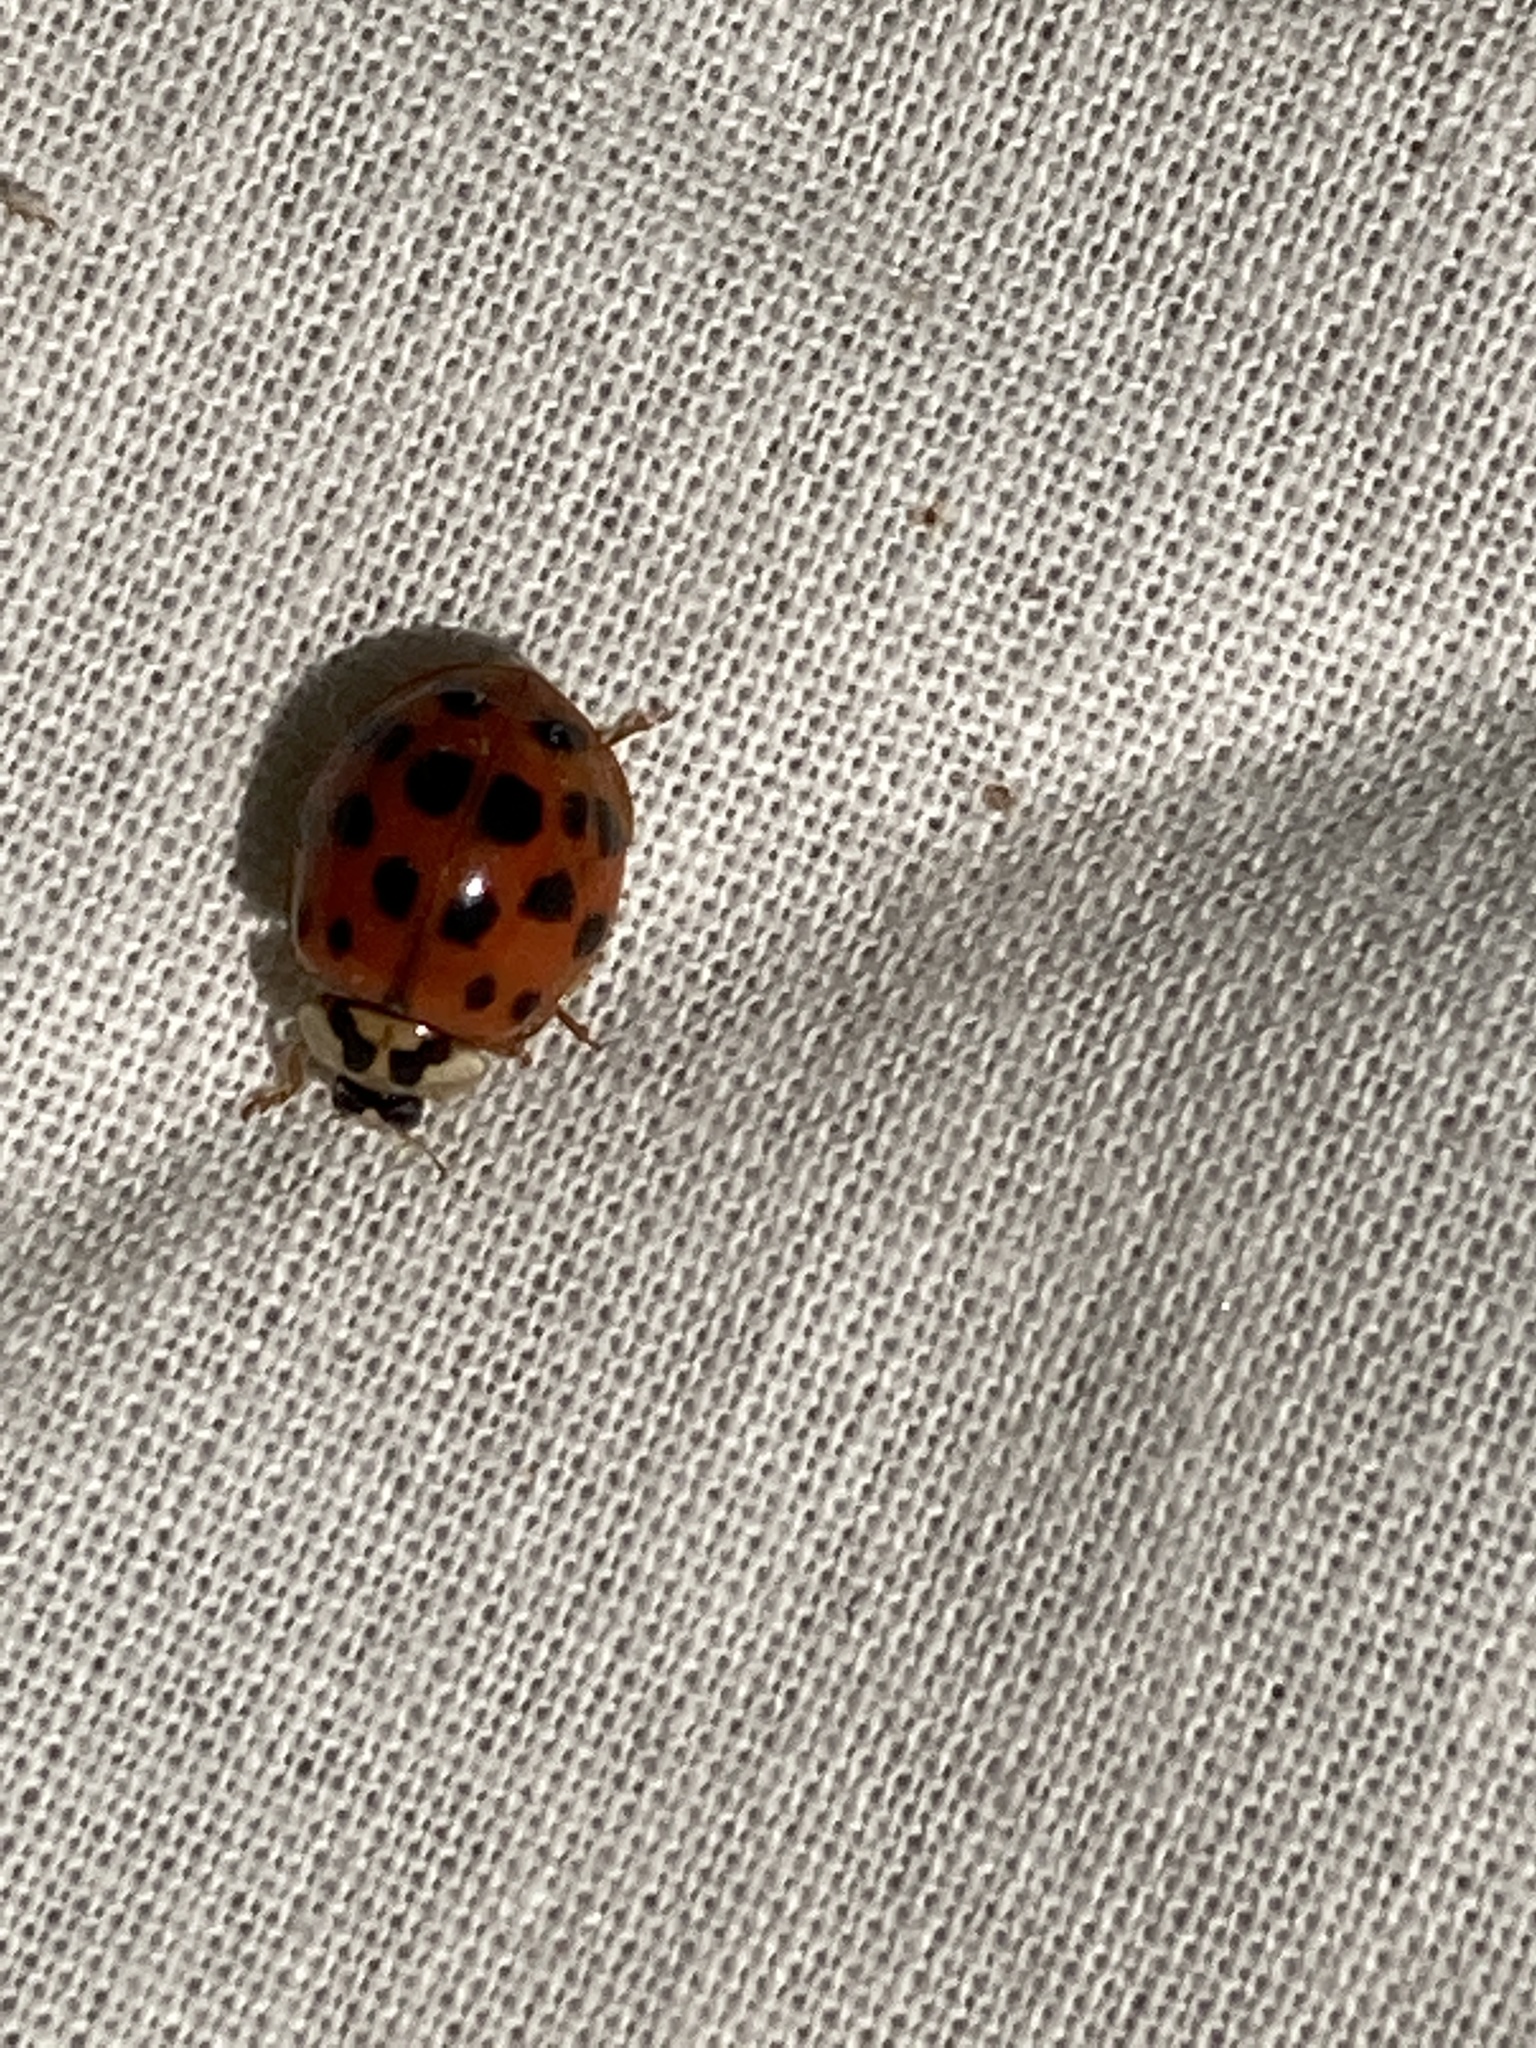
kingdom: Animalia
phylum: Arthropoda
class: Insecta
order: Coleoptera
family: Coccinellidae
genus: Harmonia
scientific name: Harmonia axyridis
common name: Harlequin ladybird
